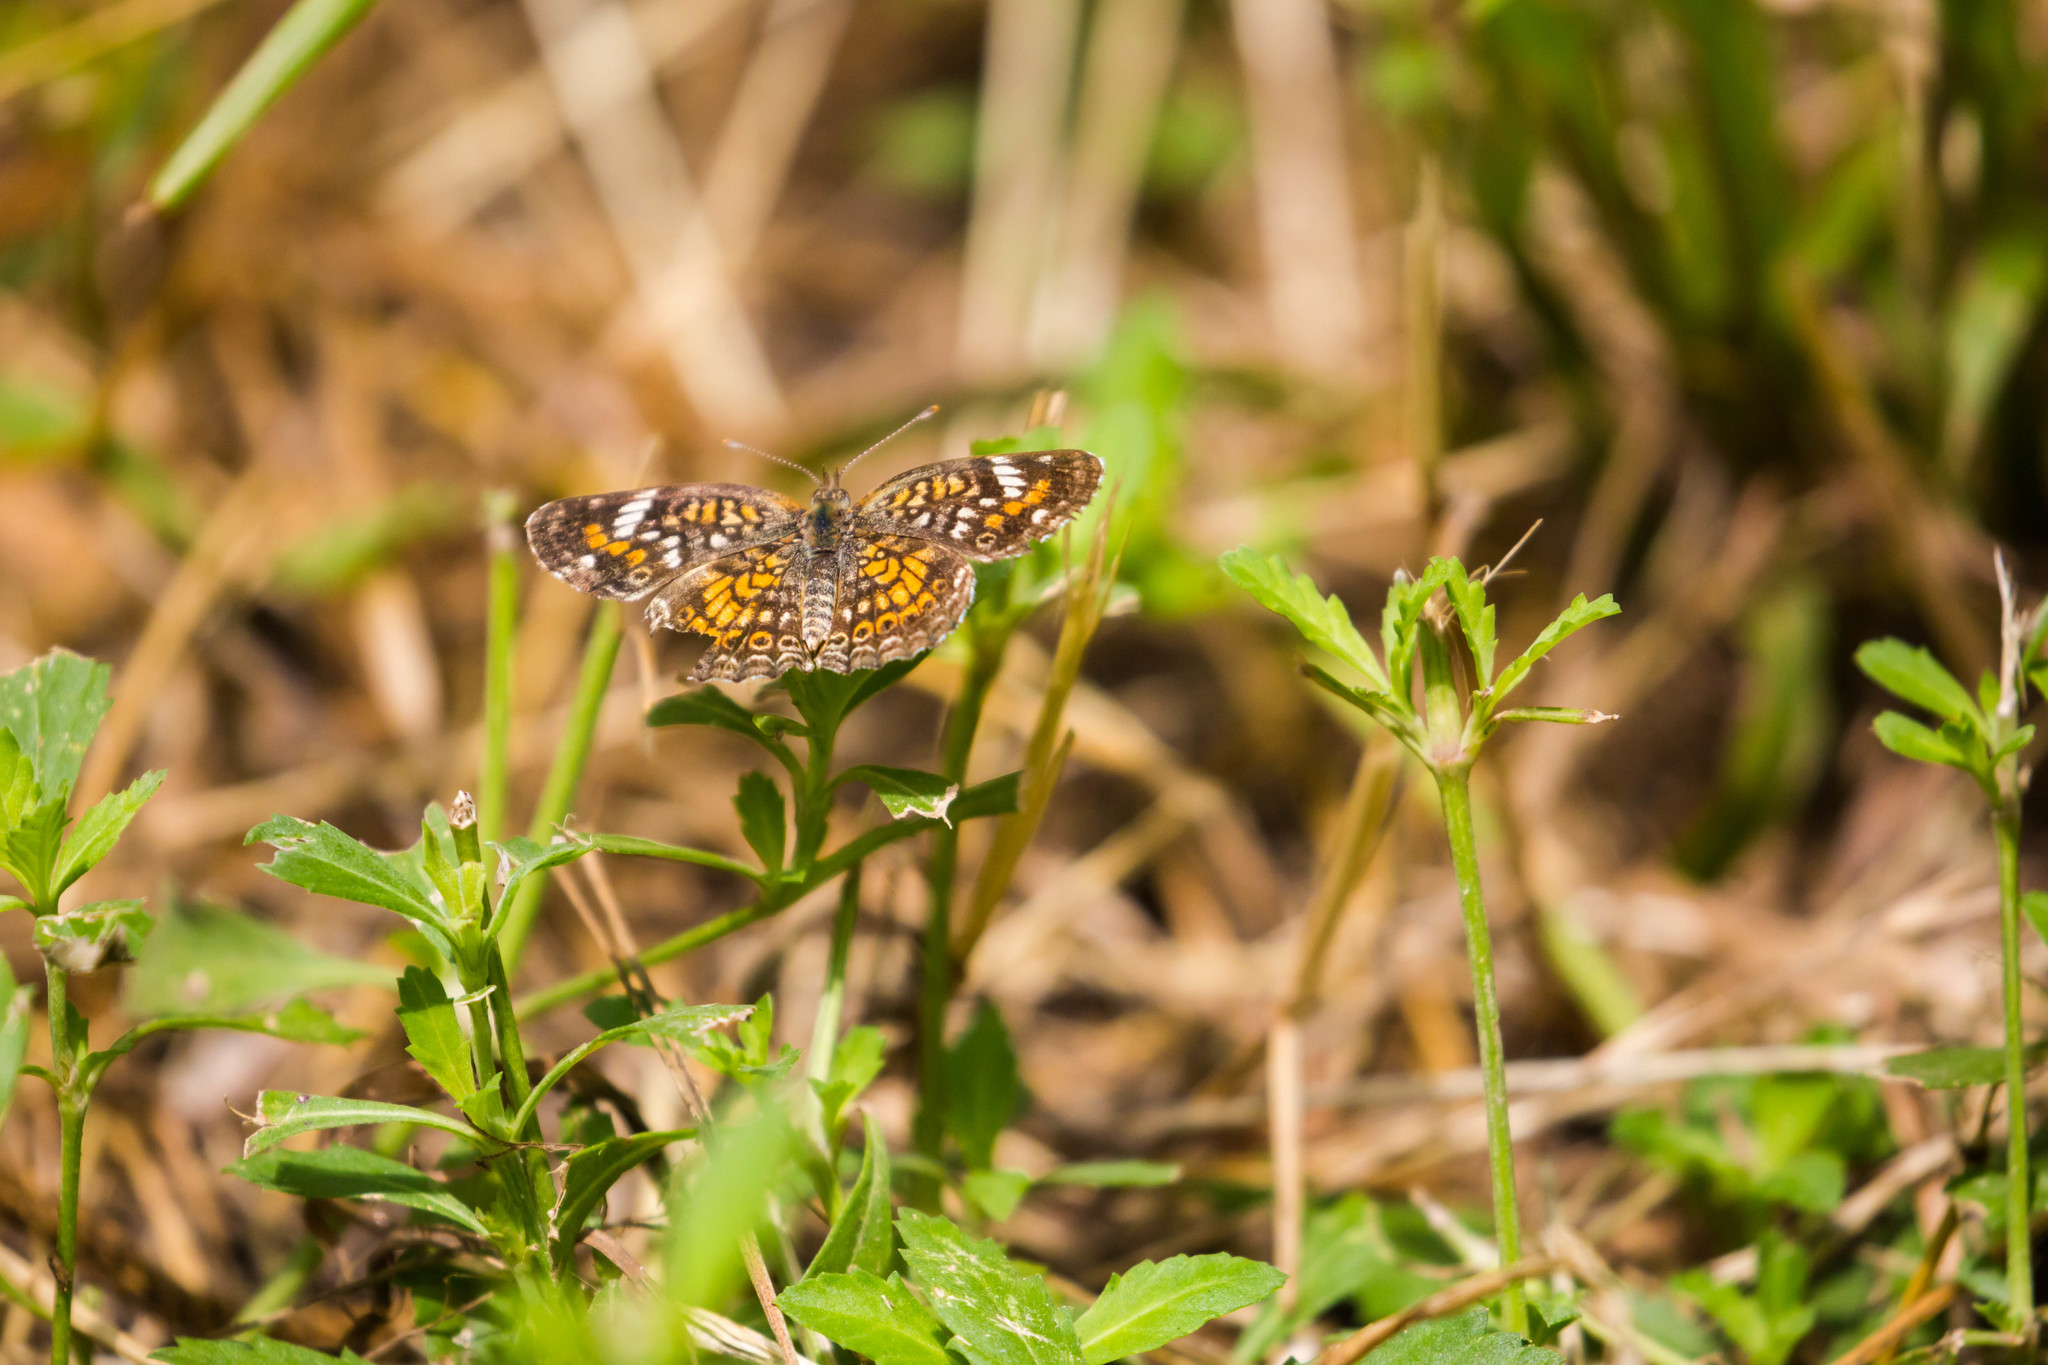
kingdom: Animalia
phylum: Arthropoda
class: Insecta
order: Lepidoptera
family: Nymphalidae
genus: Phyciodes
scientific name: Phyciodes phaon
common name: Phaon crescent
